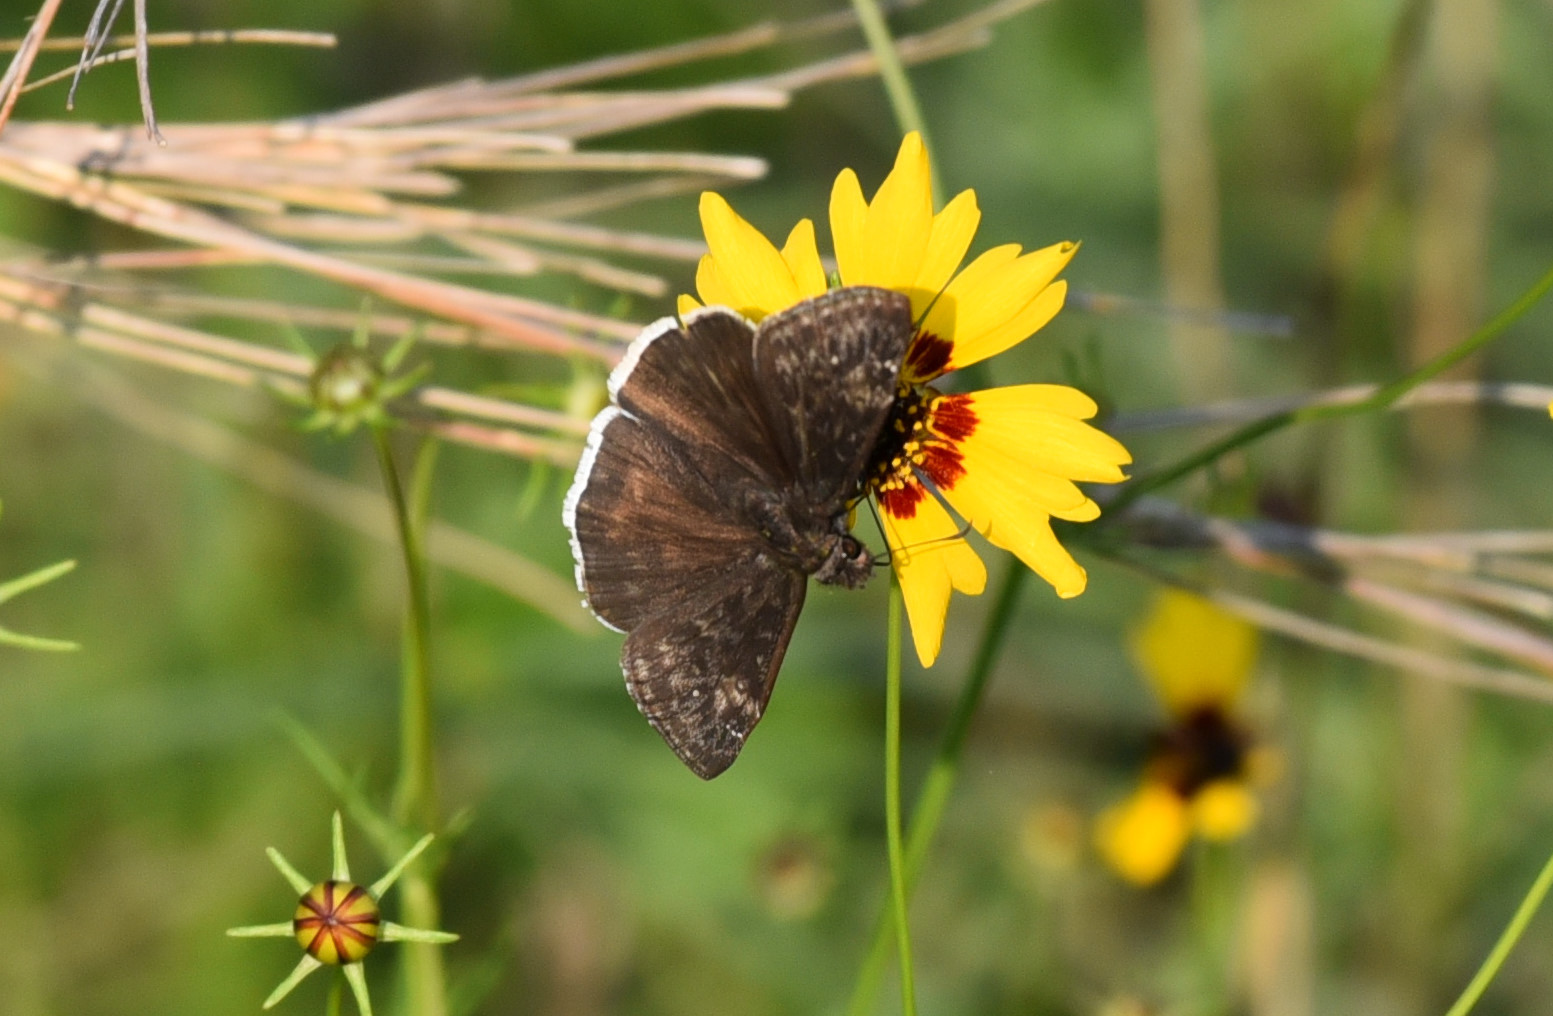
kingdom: Animalia
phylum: Arthropoda
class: Insecta
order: Lepidoptera
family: Hesperiidae
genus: Erynnis
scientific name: Erynnis funeralis
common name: Funereal duskywing
